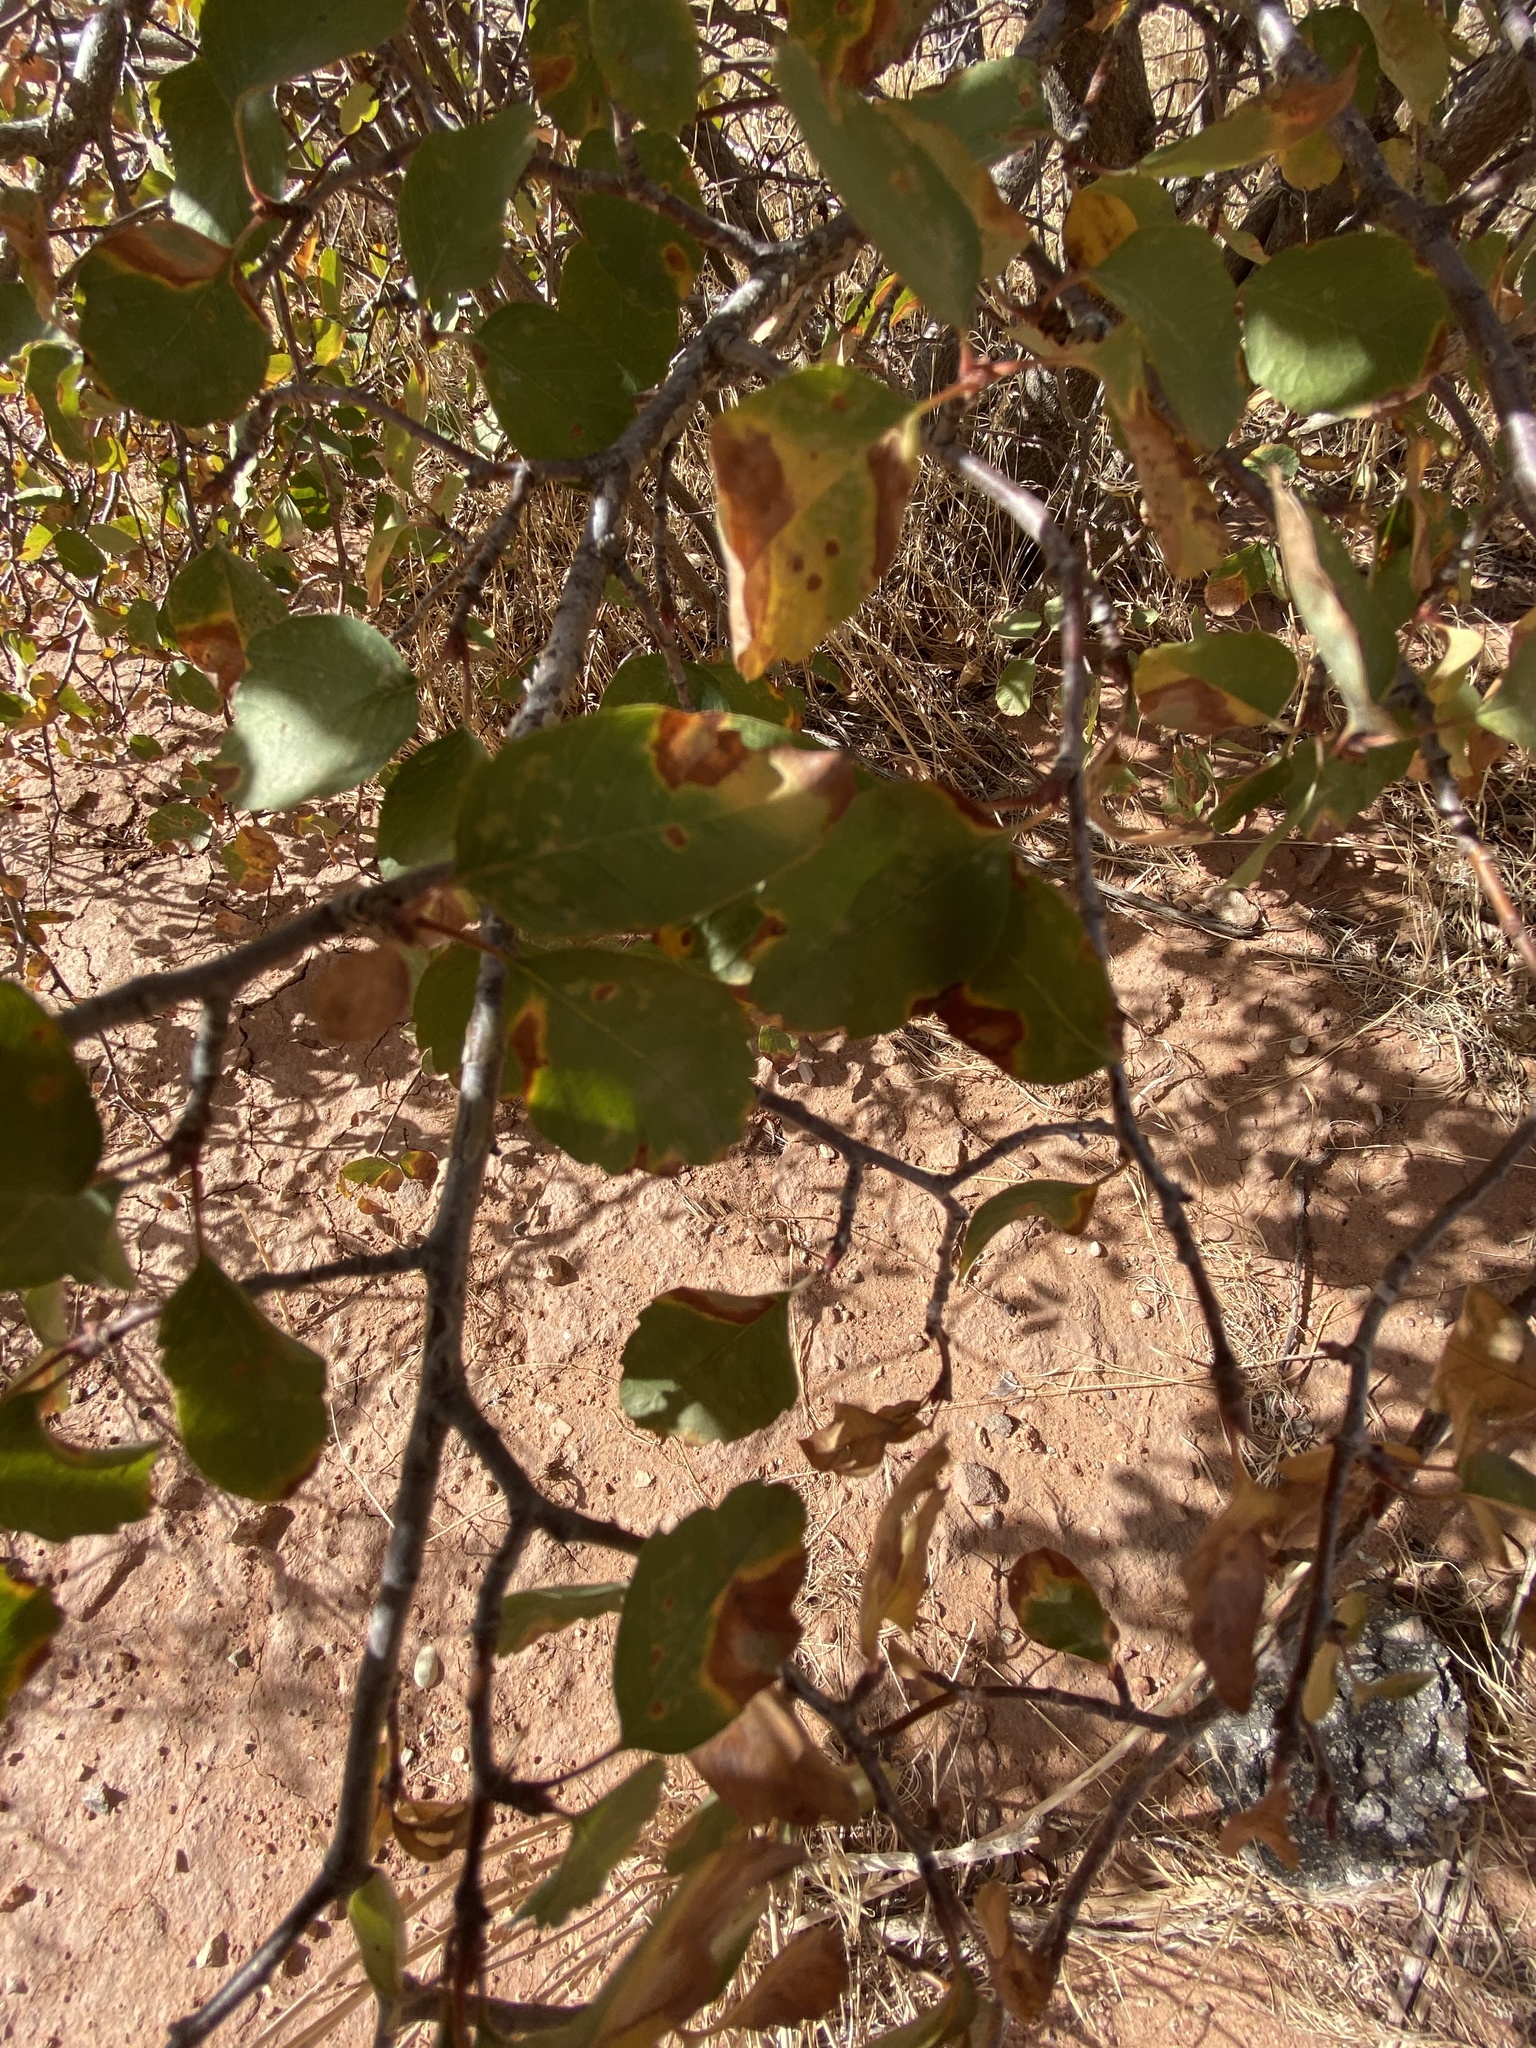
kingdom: Plantae
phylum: Tracheophyta
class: Magnoliopsida
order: Rosales
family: Rosaceae
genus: Amelanchier
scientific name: Amelanchier utahensis
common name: Utah serviceberry
